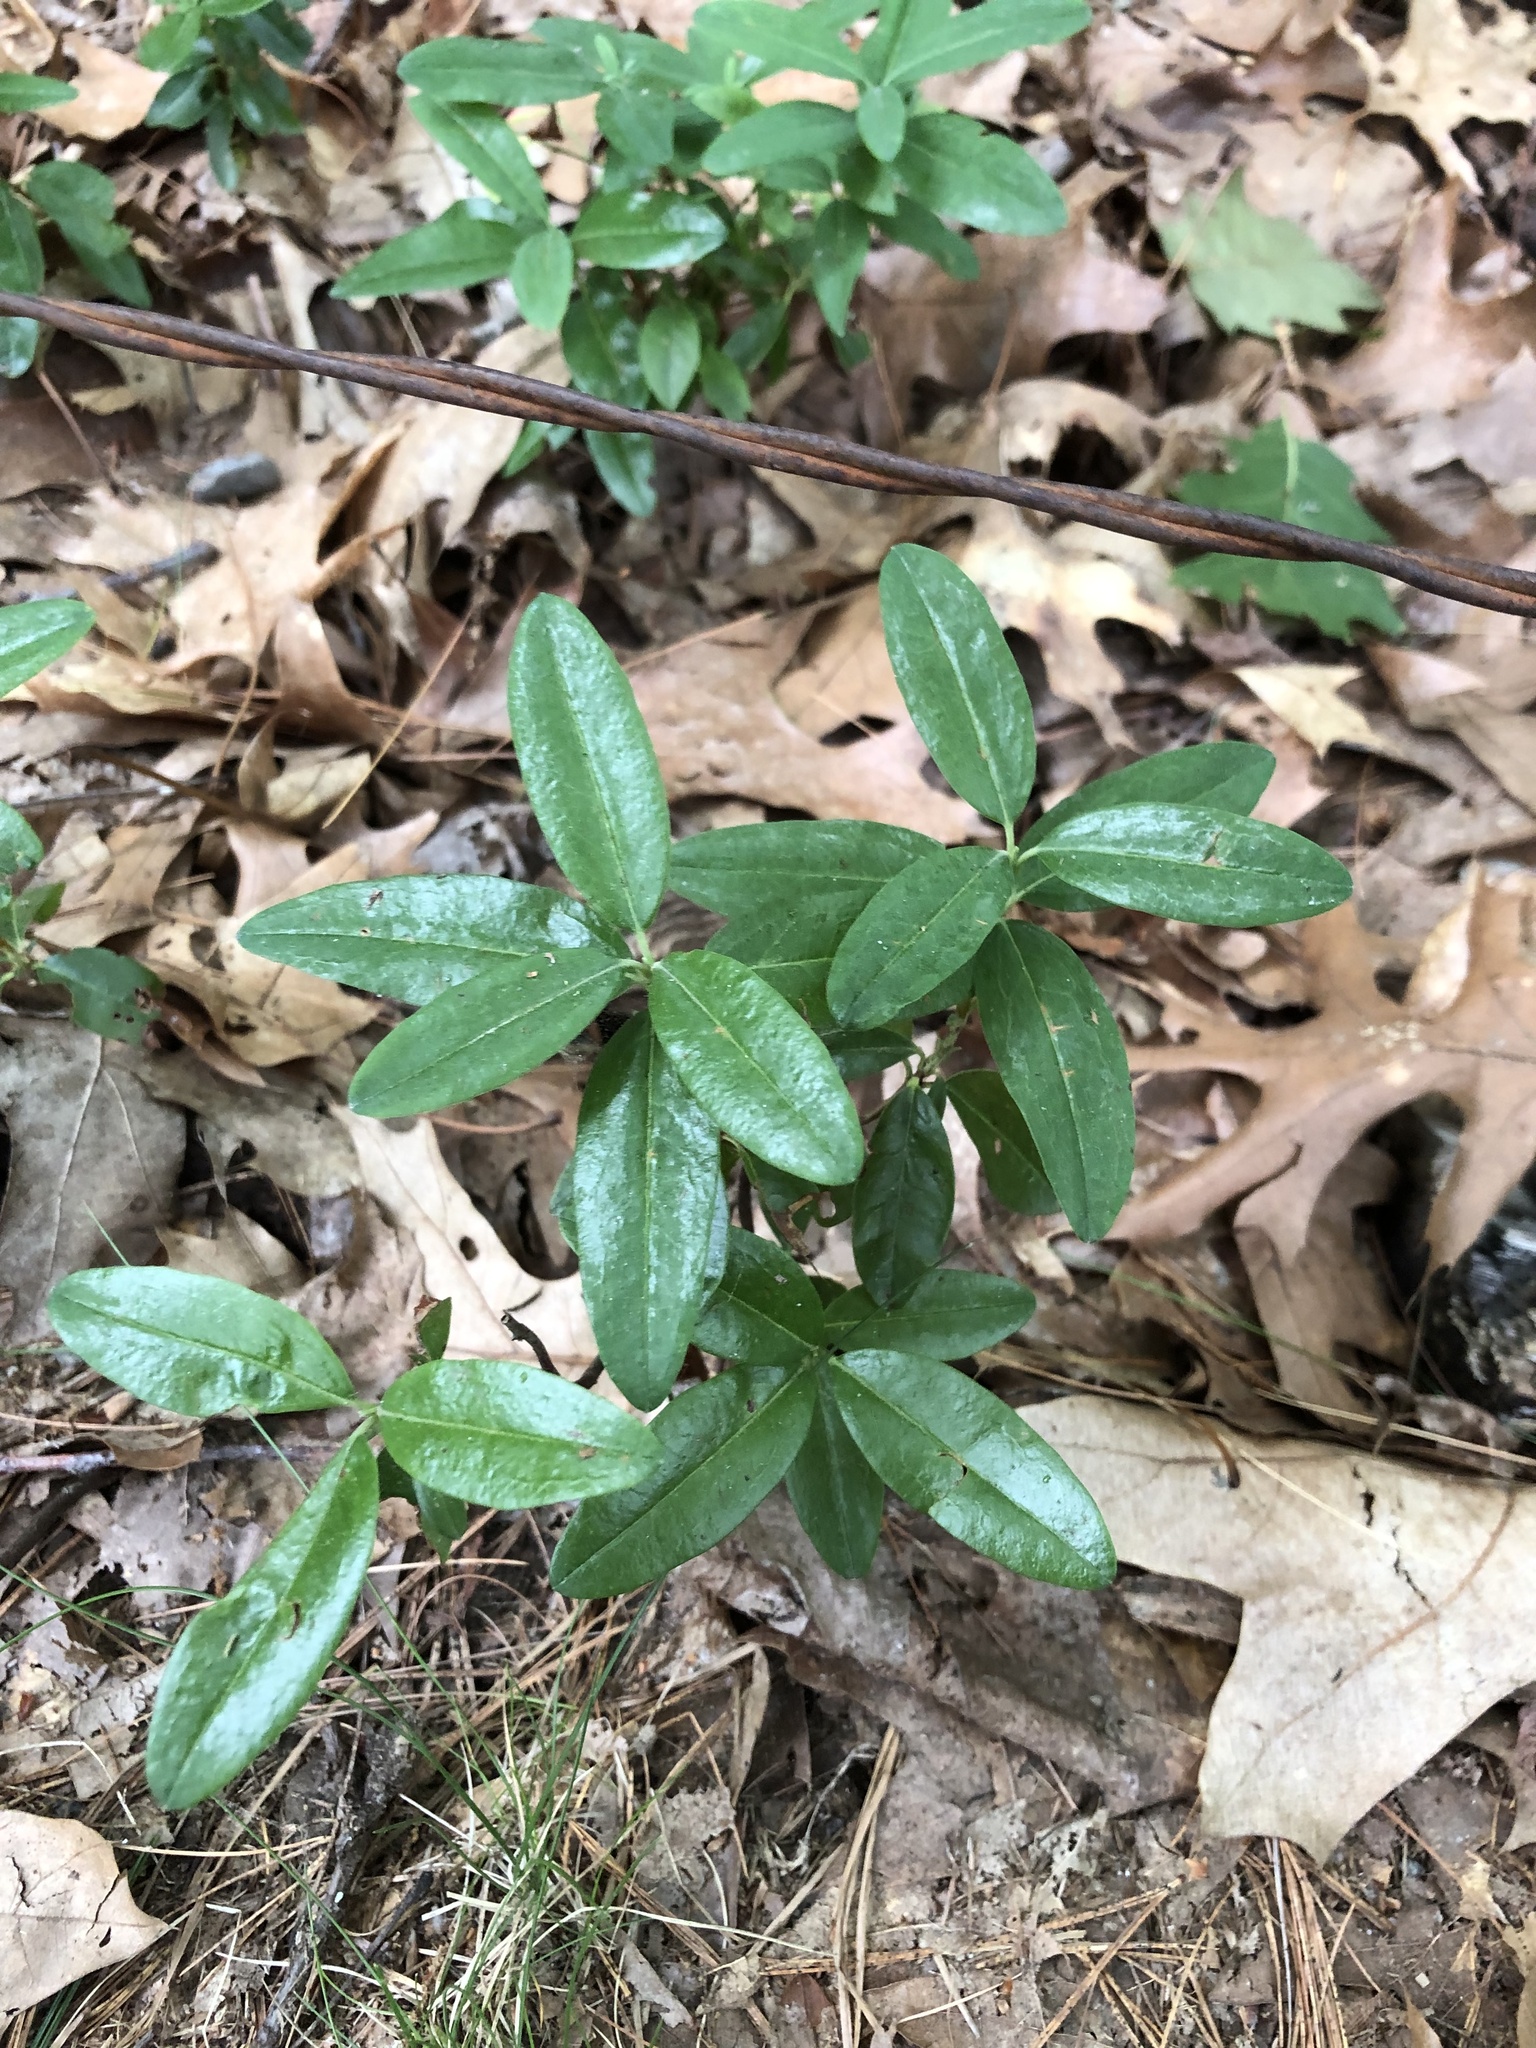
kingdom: Plantae
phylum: Tracheophyta
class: Magnoliopsida
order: Ericales
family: Ericaceae
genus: Kalmia
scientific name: Kalmia angustifolia
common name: Sheep-laurel
